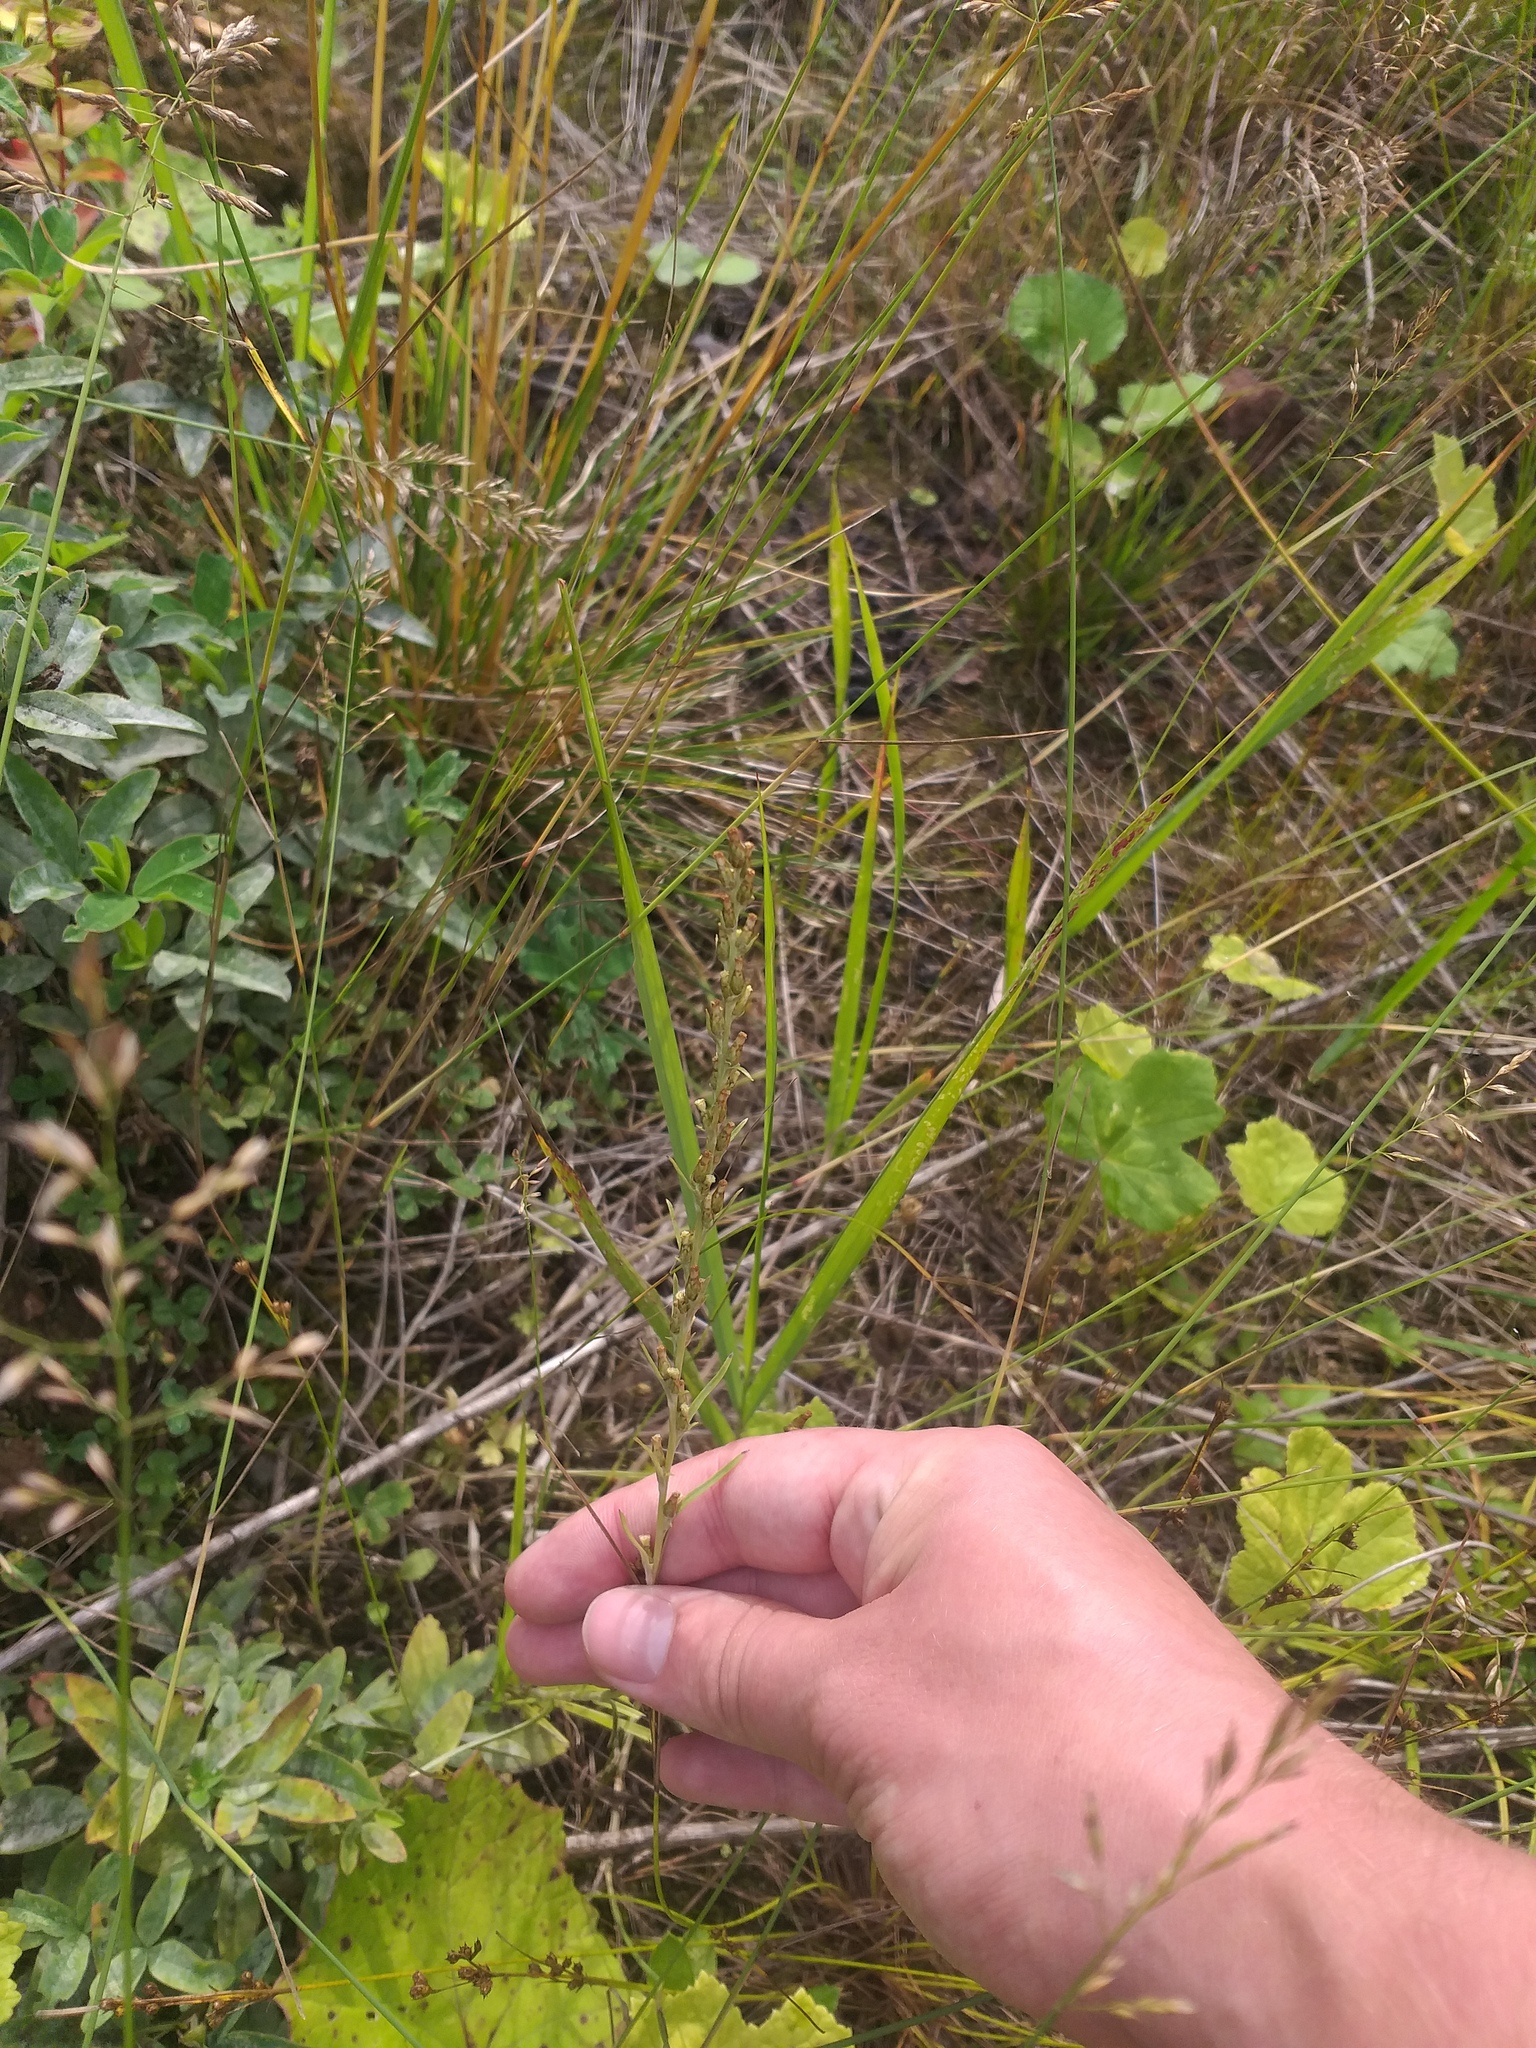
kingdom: Plantae
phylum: Tracheophyta
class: Magnoliopsida
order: Asterales
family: Asteraceae
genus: Omalotheca
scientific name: Omalotheca sylvatica
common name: Heath cudweed
